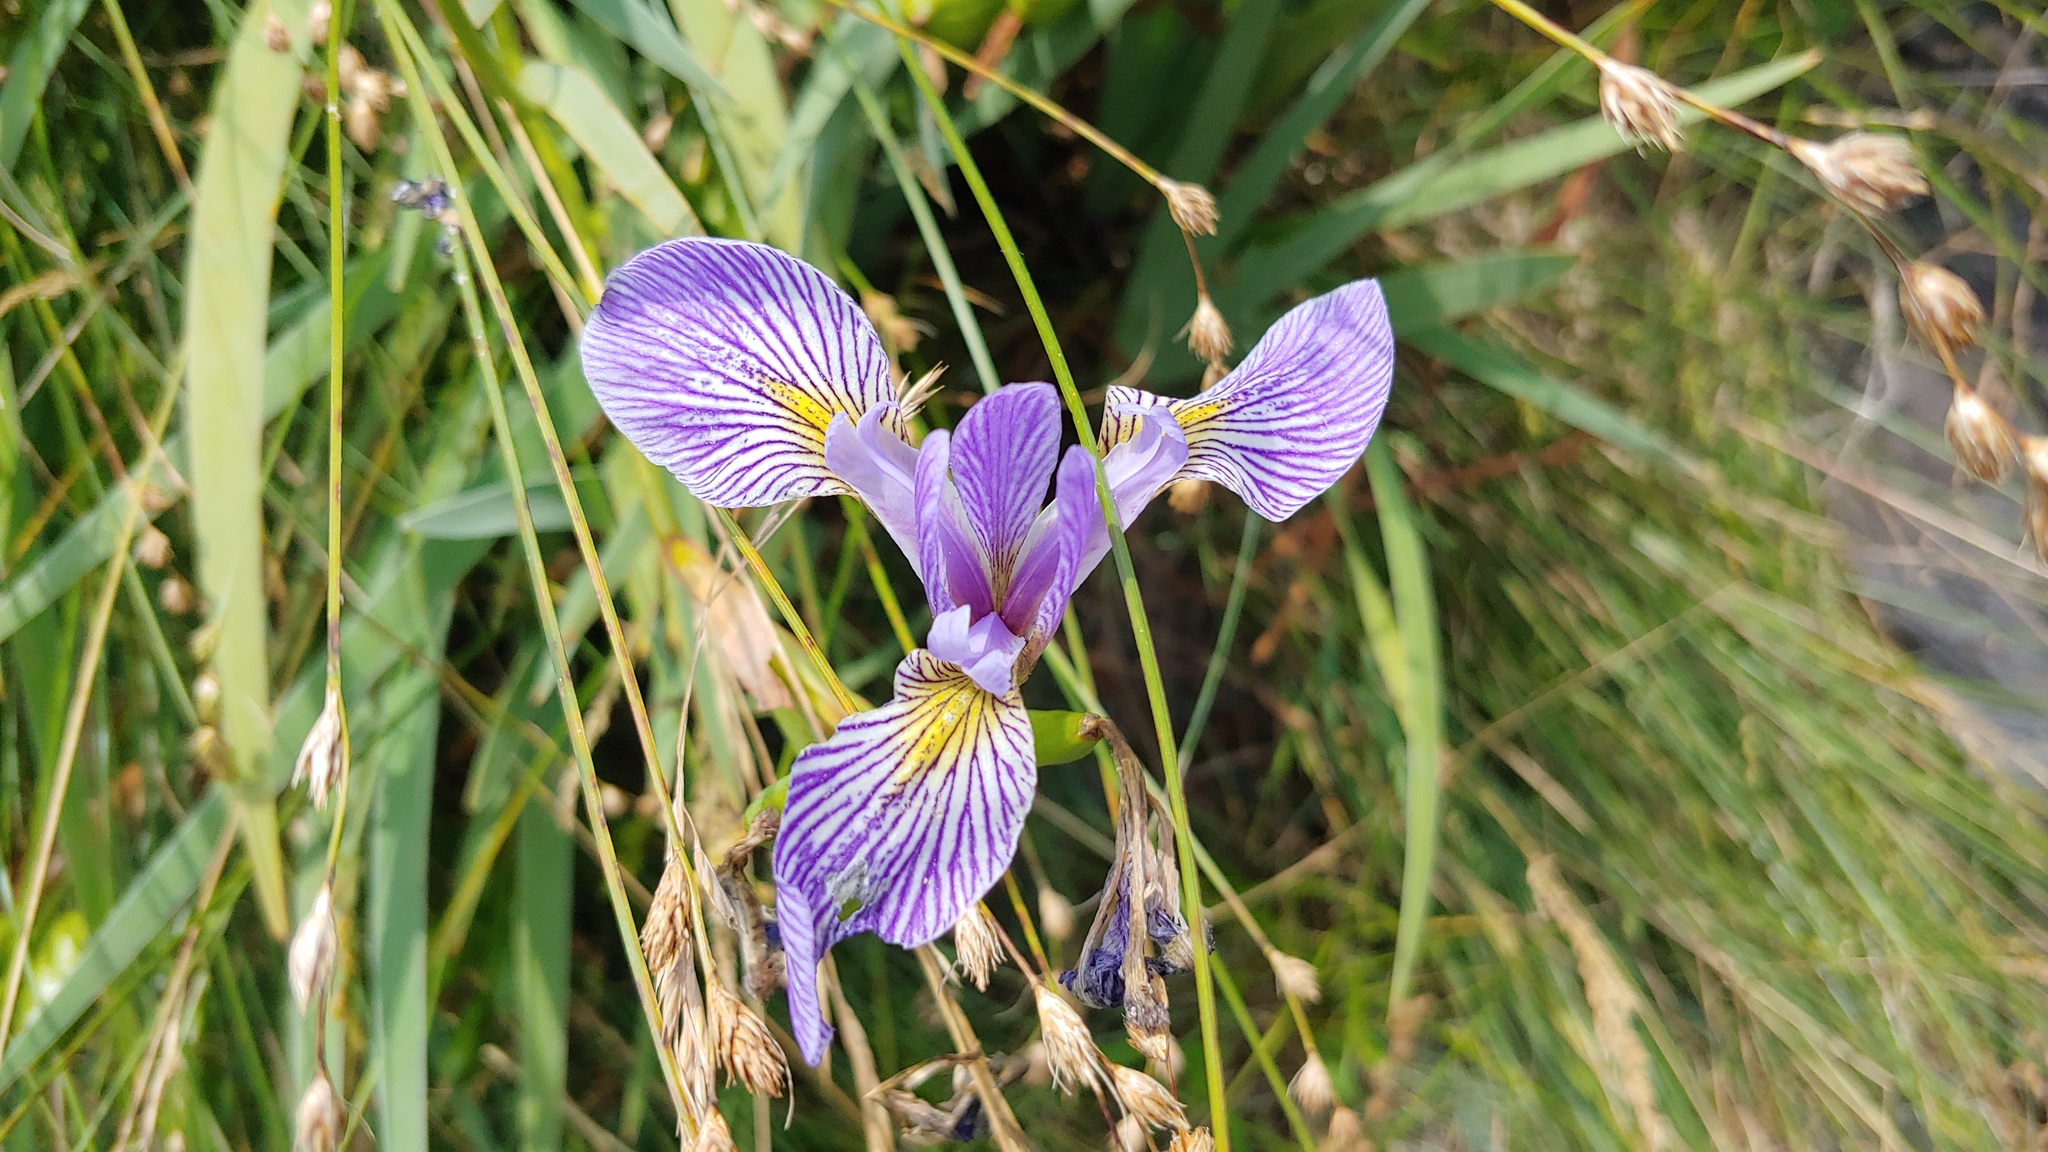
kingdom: Plantae
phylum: Tracheophyta
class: Liliopsida
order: Asparagales
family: Iridaceae
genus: Iris
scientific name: Iris versicolor
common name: Purple iris
